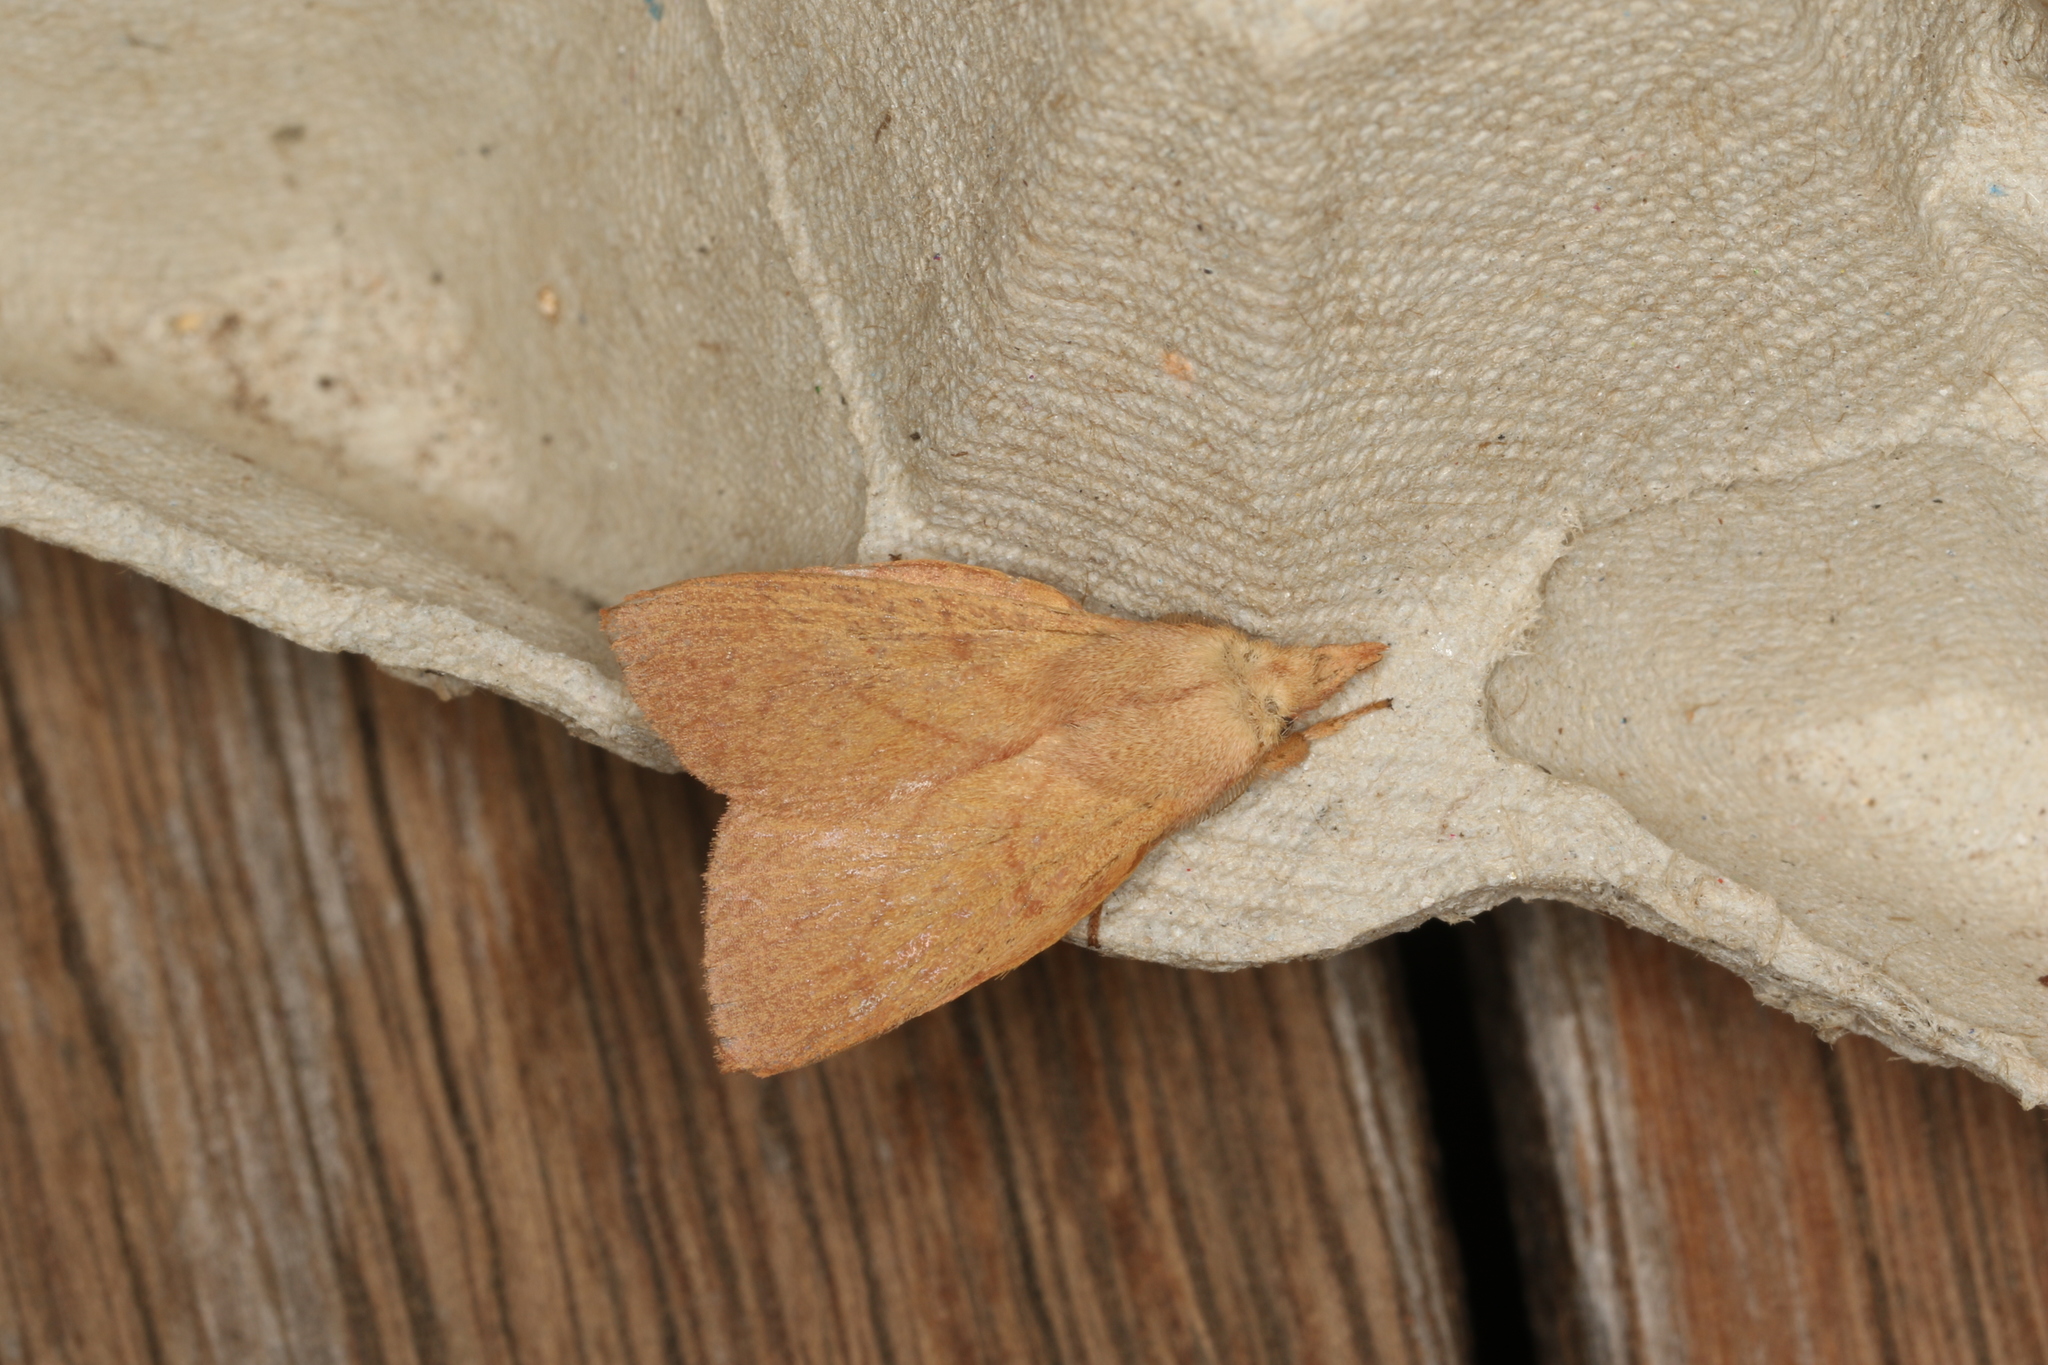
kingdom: Animalia
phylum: Arthropoda
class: Insecta
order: Lepidoptera
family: Lasiocampidae
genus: Pararguda
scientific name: Pararguda nasuta
